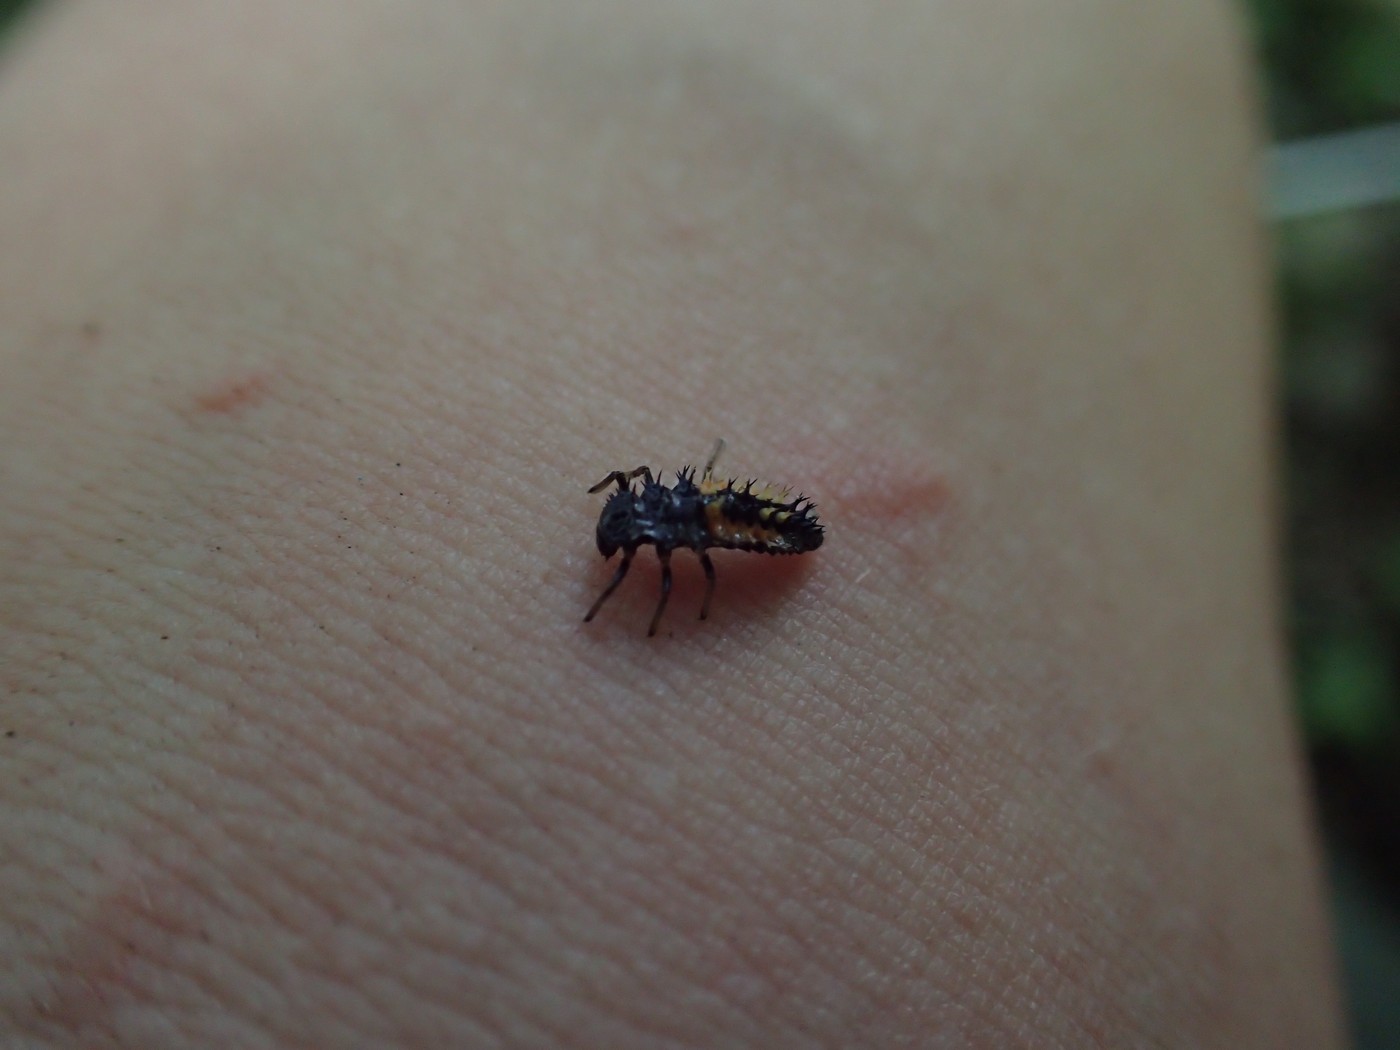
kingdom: Animalia
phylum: Arthropoda
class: Insecta
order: Coleoptera
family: Coccinellidae
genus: Harmonia
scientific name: Harmonia axyridis
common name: Harlequin ladybird
